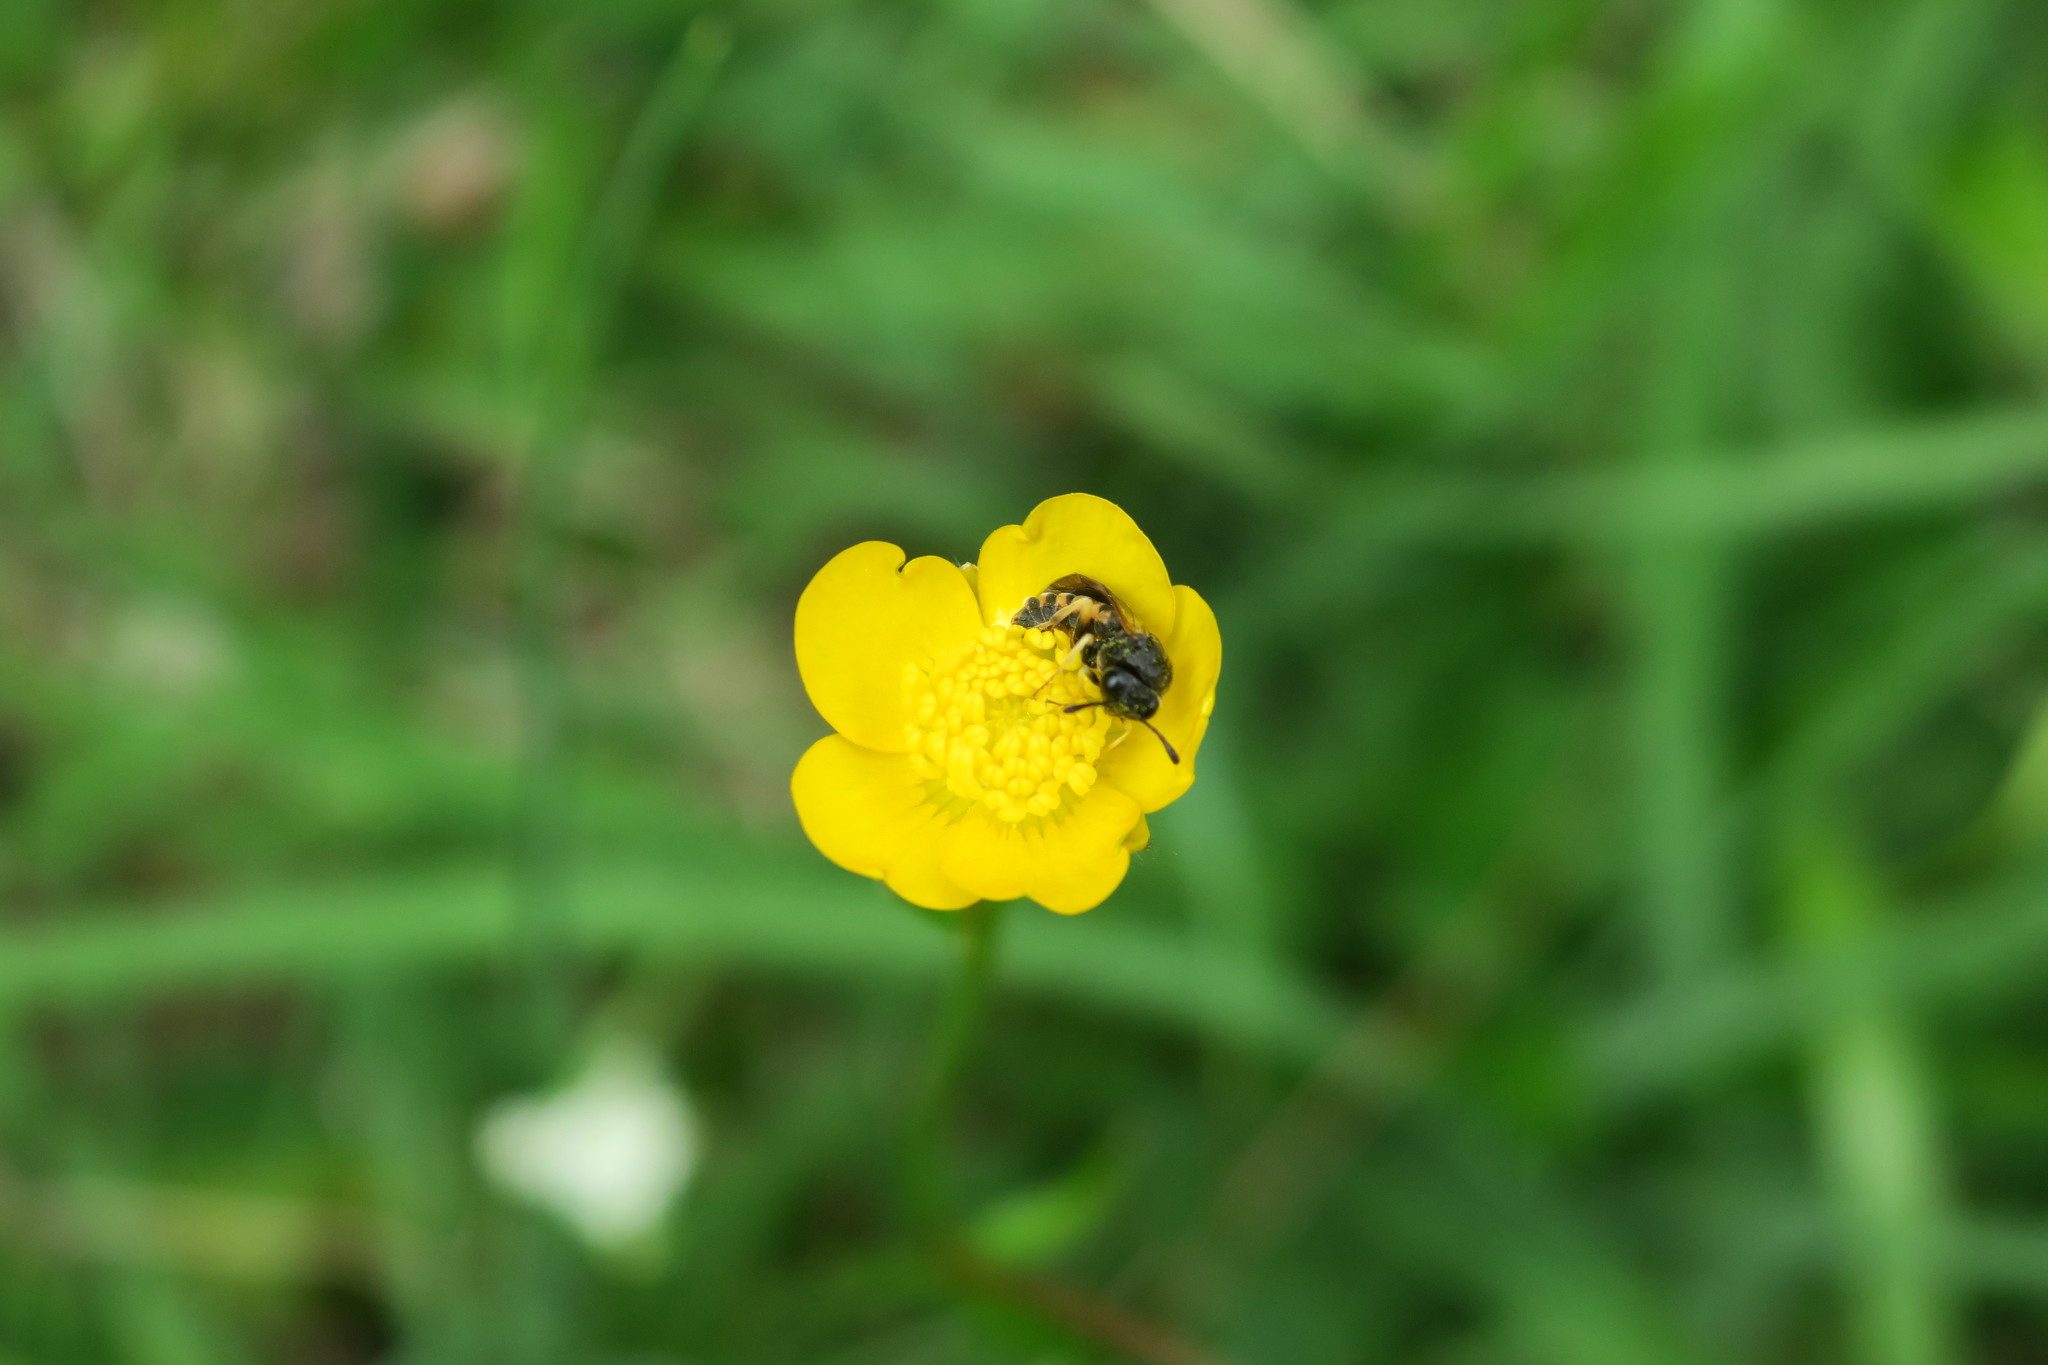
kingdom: Animalia
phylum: Arthropoda
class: Insecta
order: Hymenoptera
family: Cimbicidae
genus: Corynis
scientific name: Corynis crassicornis
